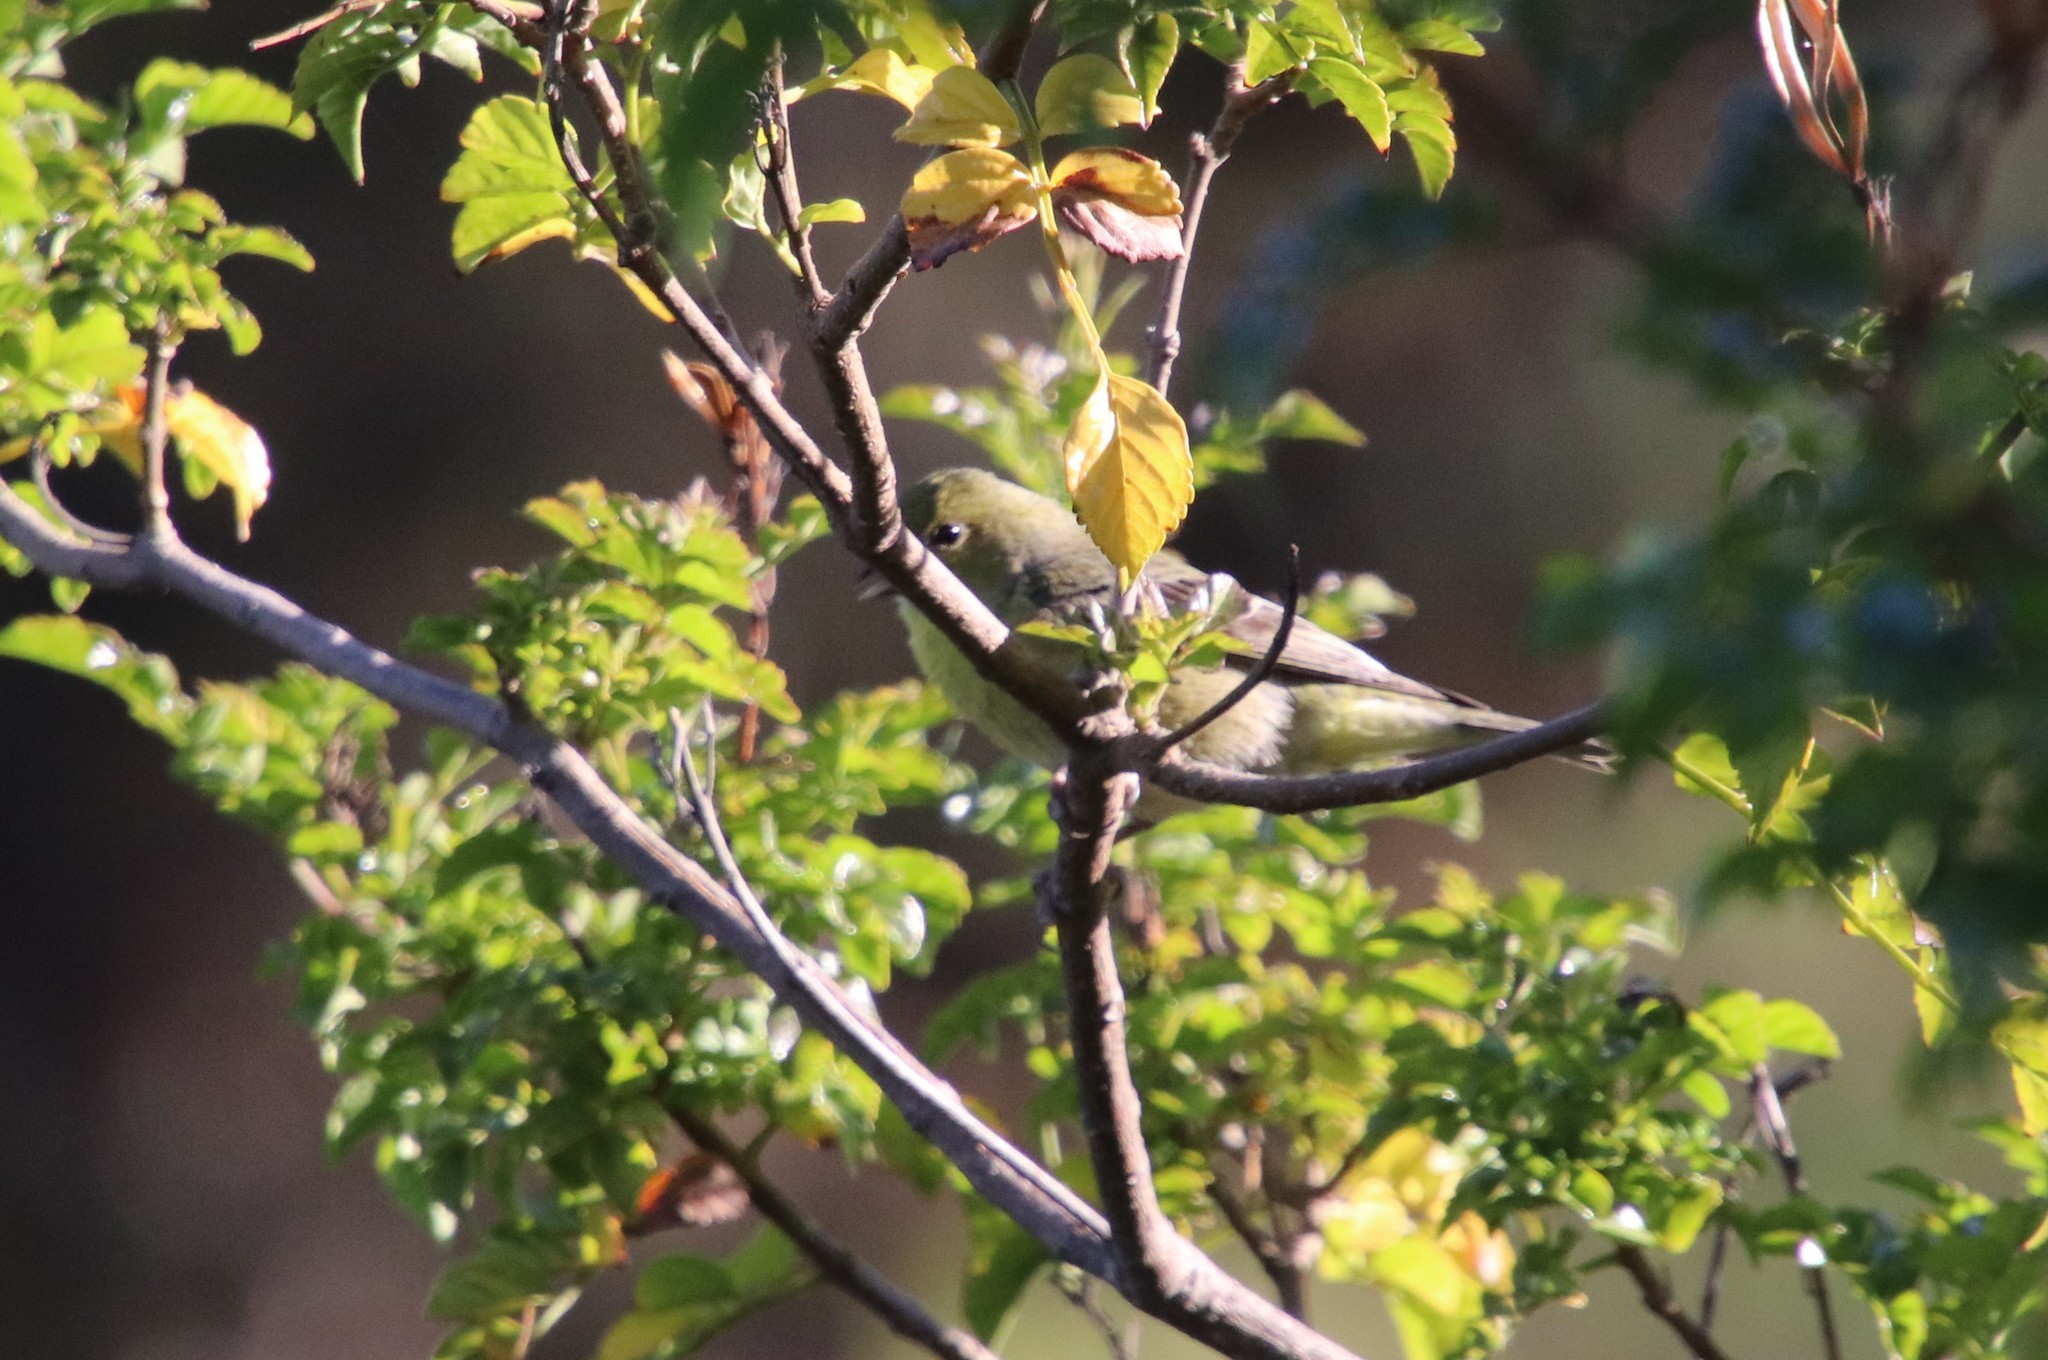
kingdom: Animalia
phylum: Chordata
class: Aves
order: Passeriformes
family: Fringillidae
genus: Spinus
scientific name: Spinus psaltria
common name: Lesser goldfinch
